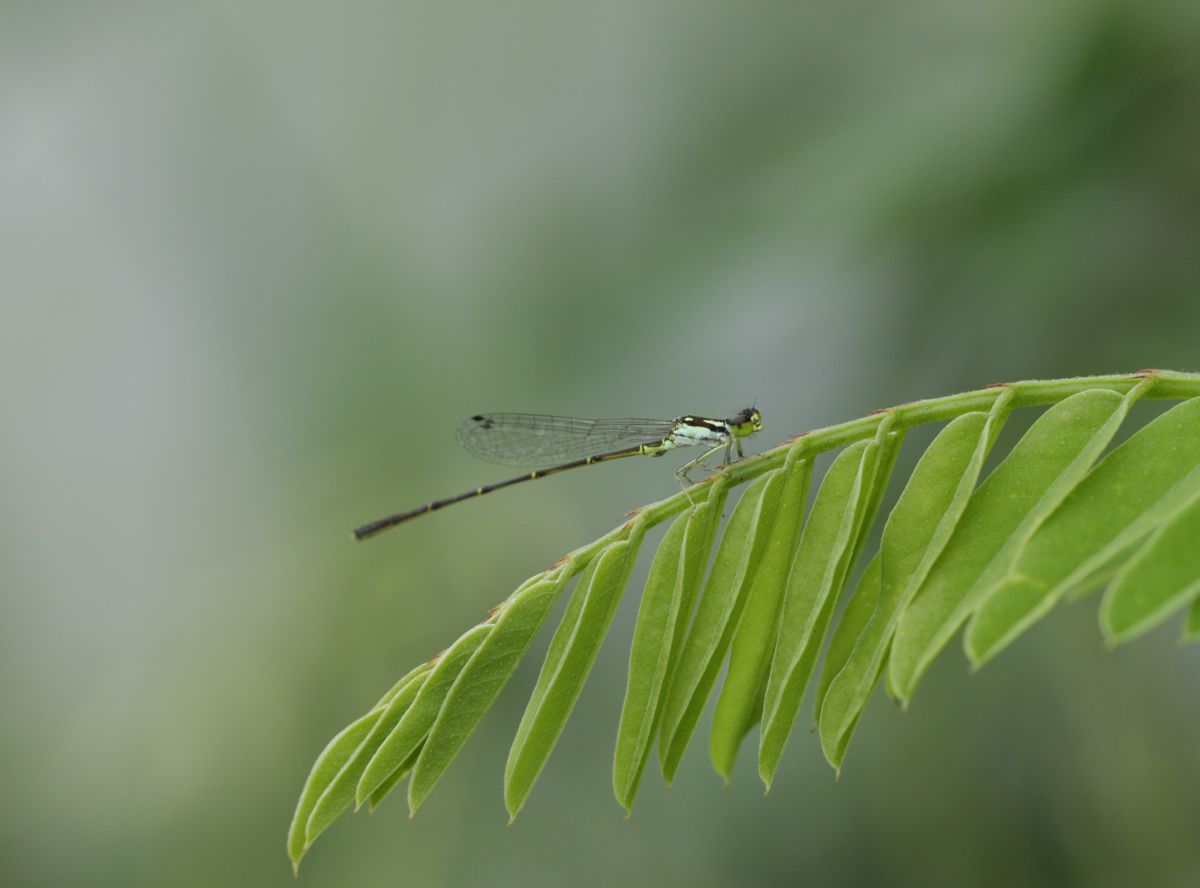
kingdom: Animalia
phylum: Arthropoda
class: Insecta
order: Odonata
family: Coenagrionidae
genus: Ischnura
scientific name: Ischnura posita
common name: Fragile forktail
